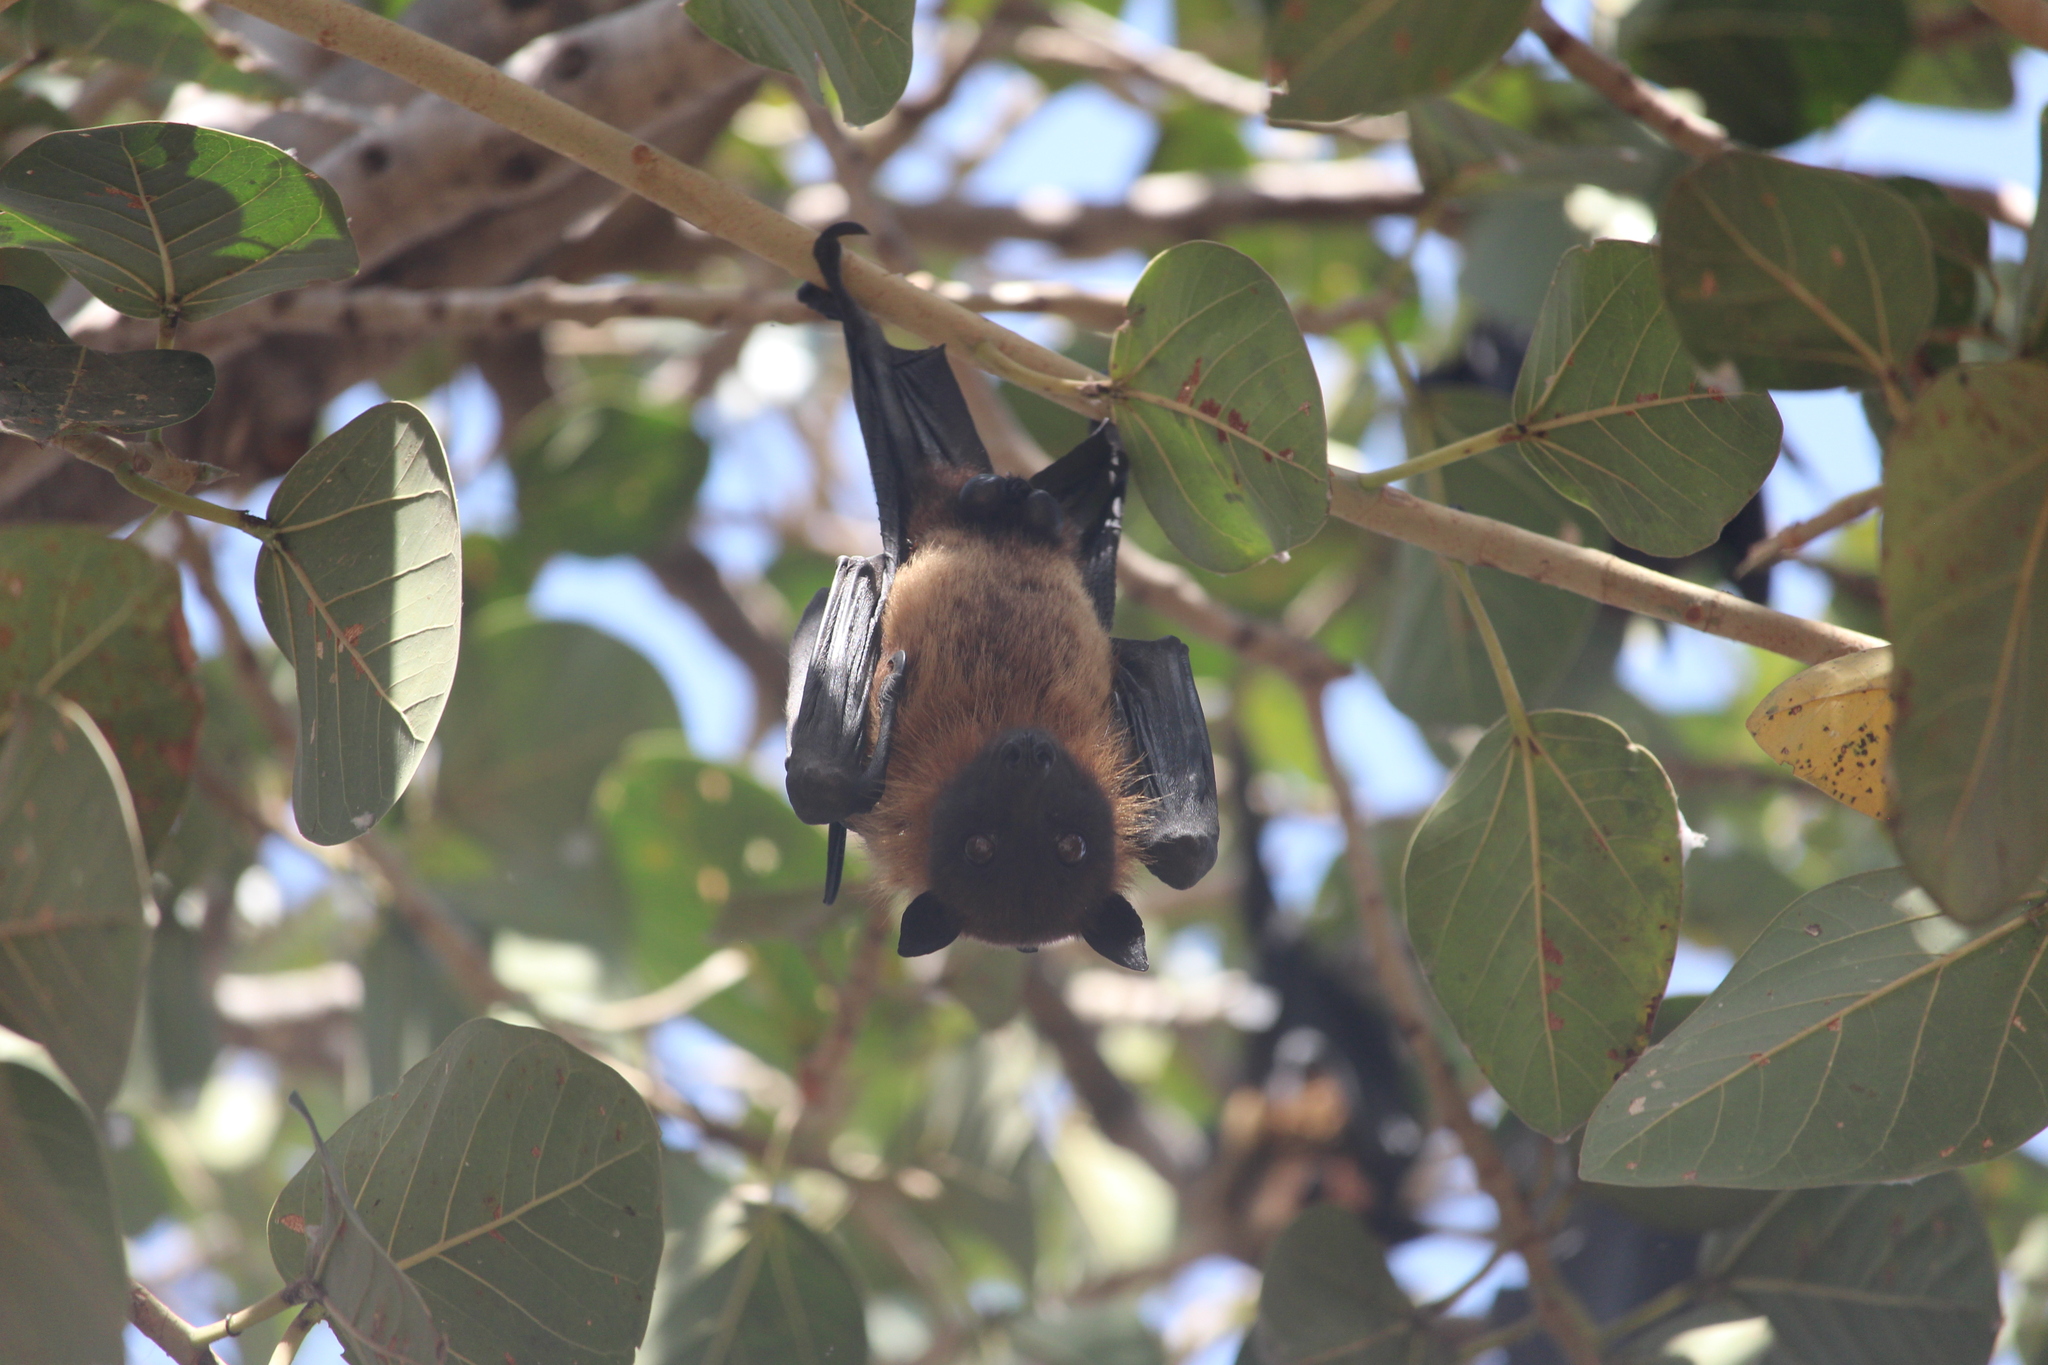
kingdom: Animalia
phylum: Chordata
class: Mammalia
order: Chiroptera
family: Pteropodidae
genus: Pteropus
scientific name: Pteropus vampyrus
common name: Large flying fox
